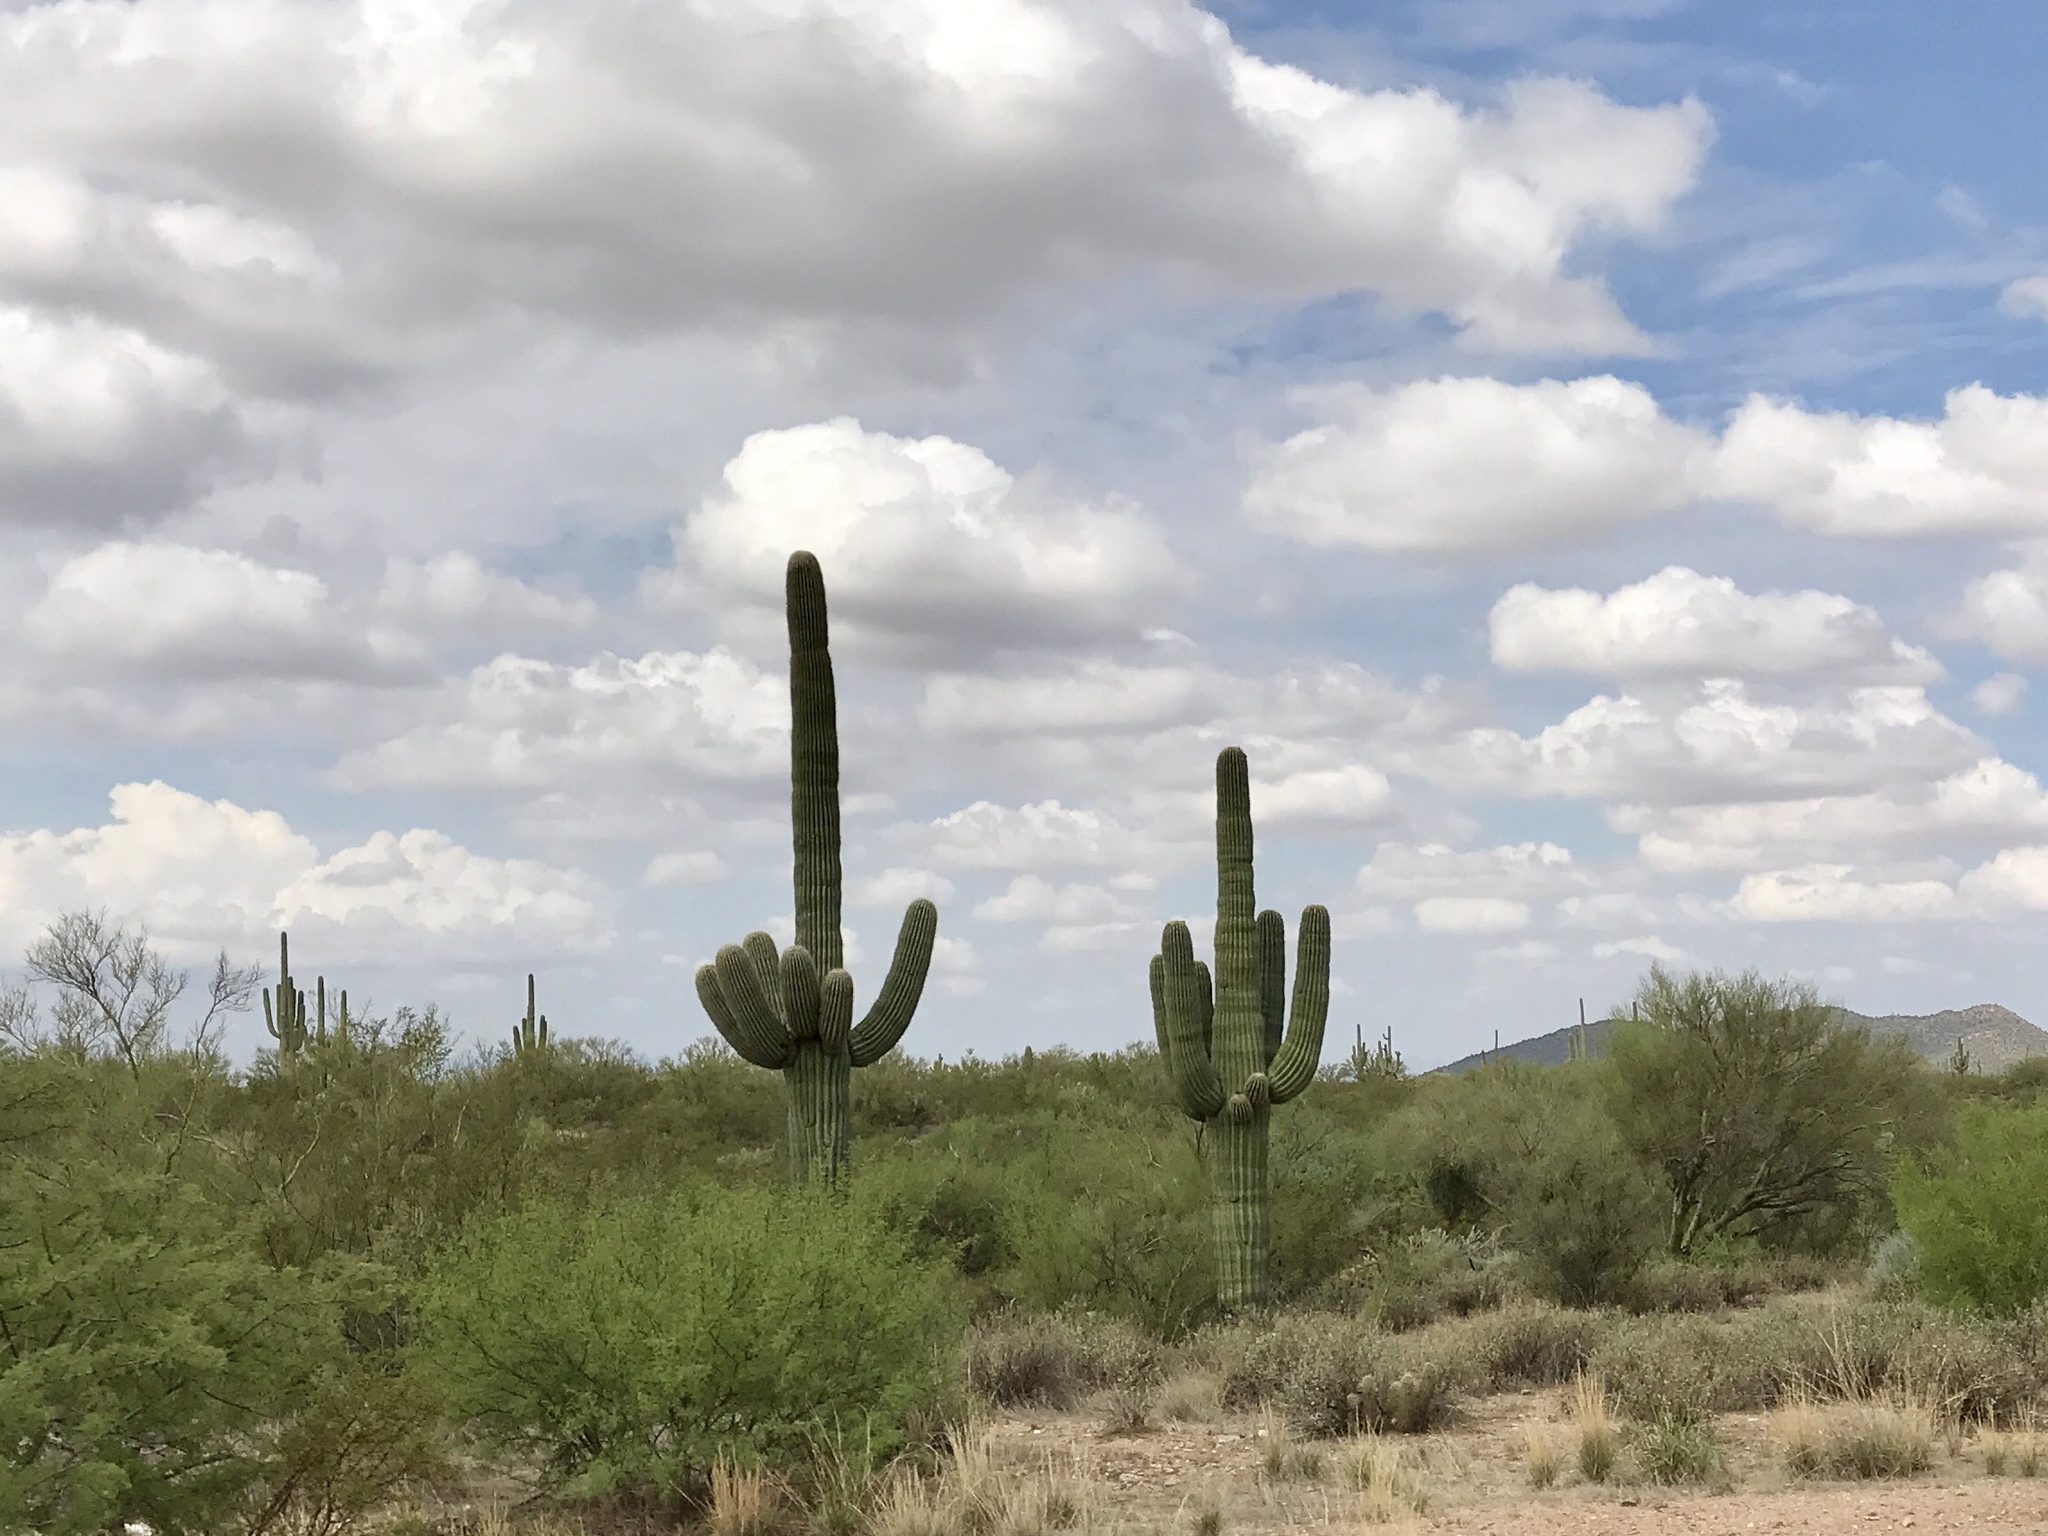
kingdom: Plantae
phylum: Tracheophyta
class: Magnoliopsida
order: Caryophyllales
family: Cactaceae
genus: Carnegiea
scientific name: Carnegiea gigantea
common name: Saguaro
